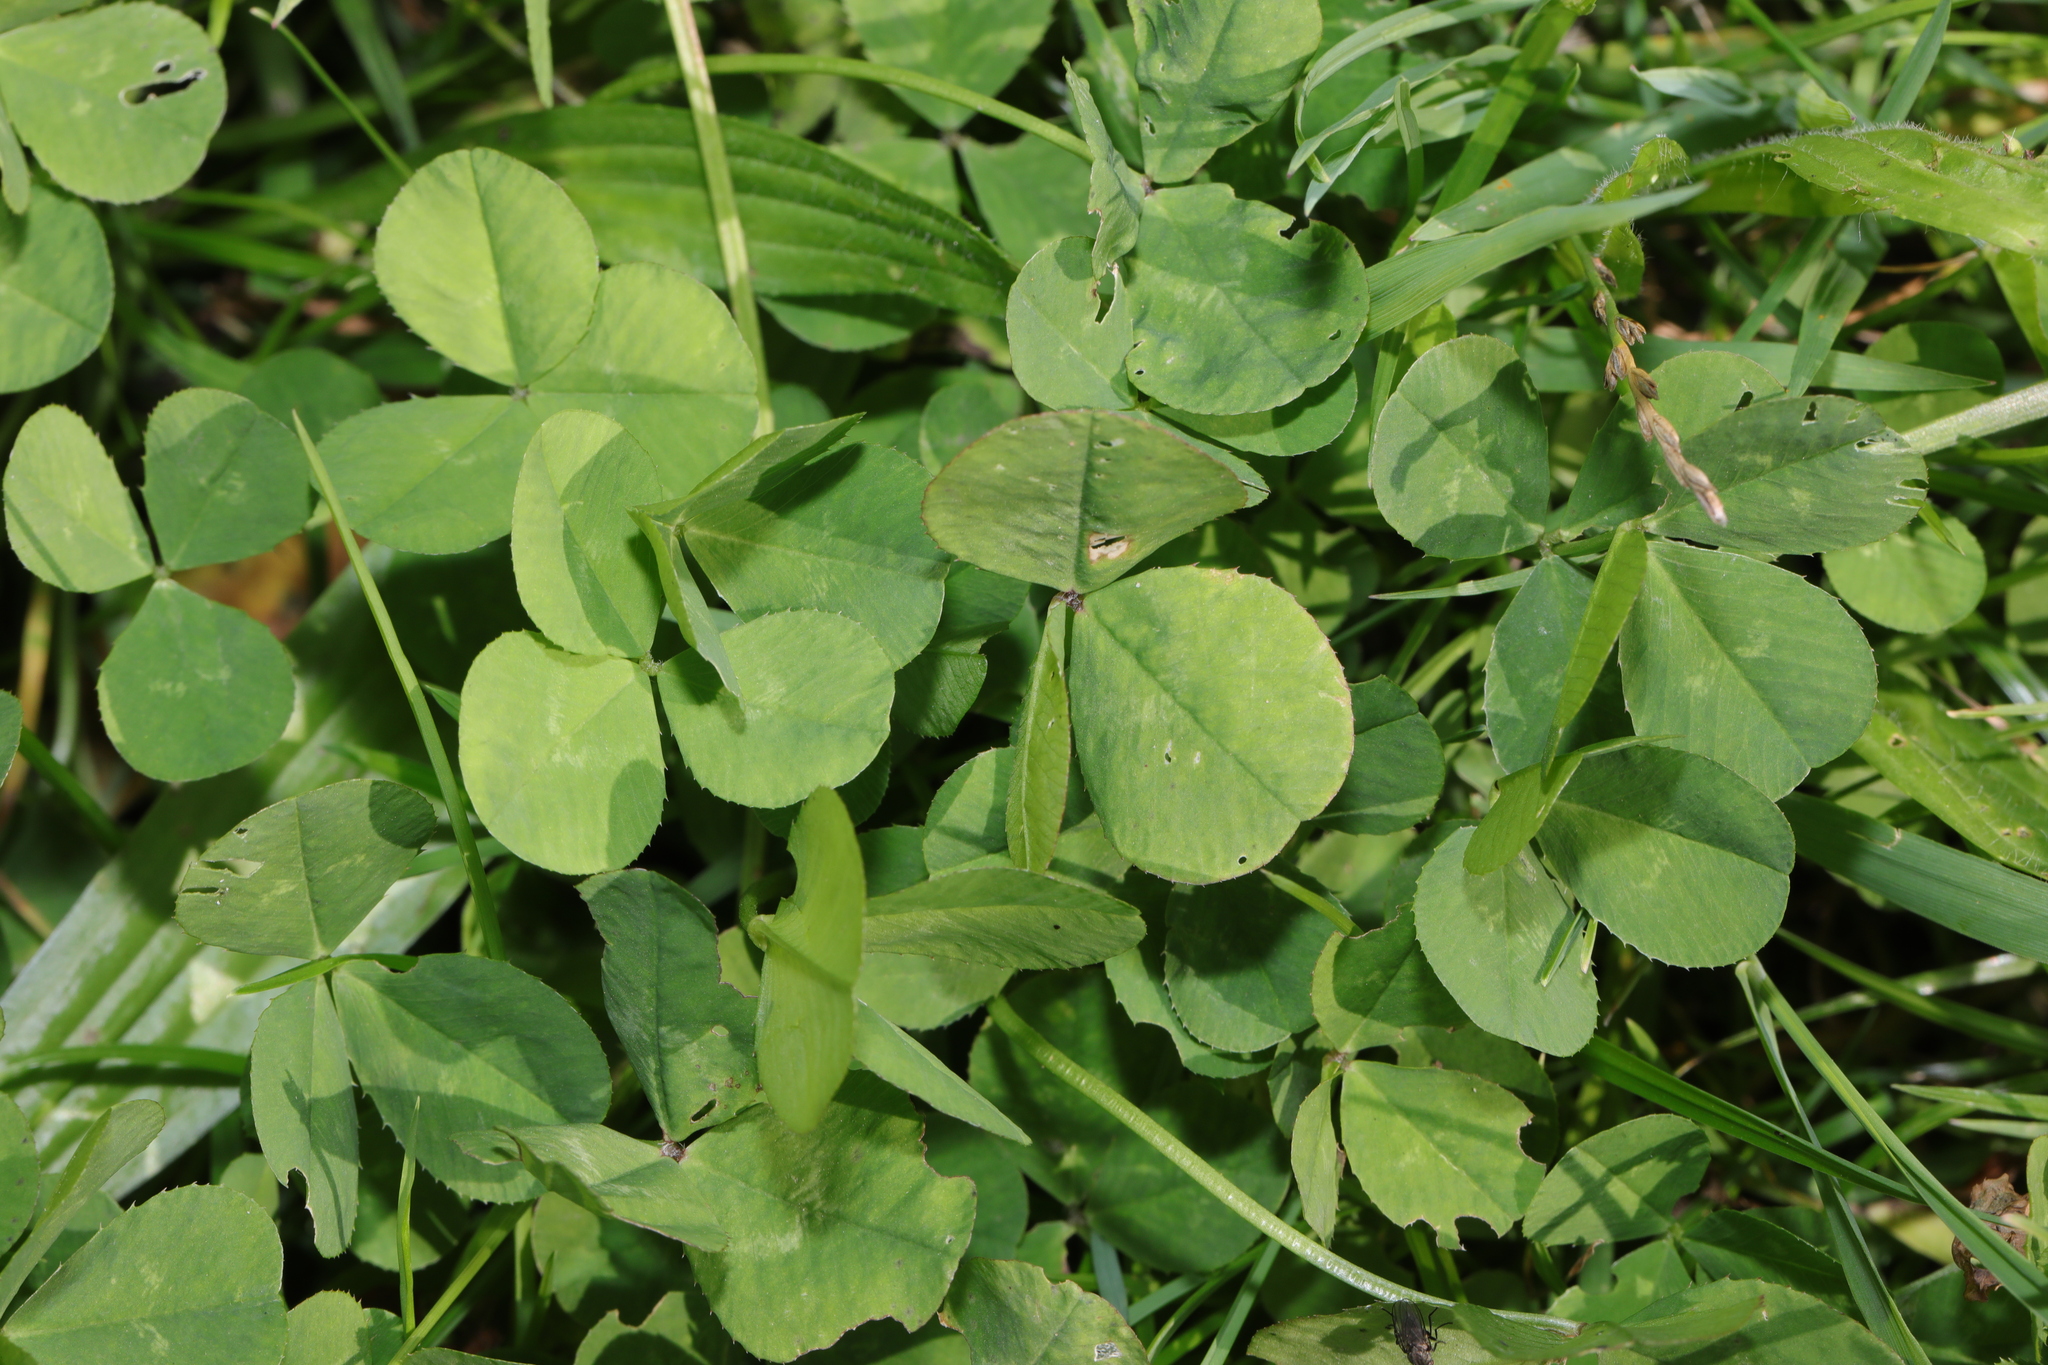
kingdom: Plantae
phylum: Tracheophyta
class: Magnoliopsida
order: Fabales
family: Fabaceae
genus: Trifolium
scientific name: Trifolium repens
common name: White clover
